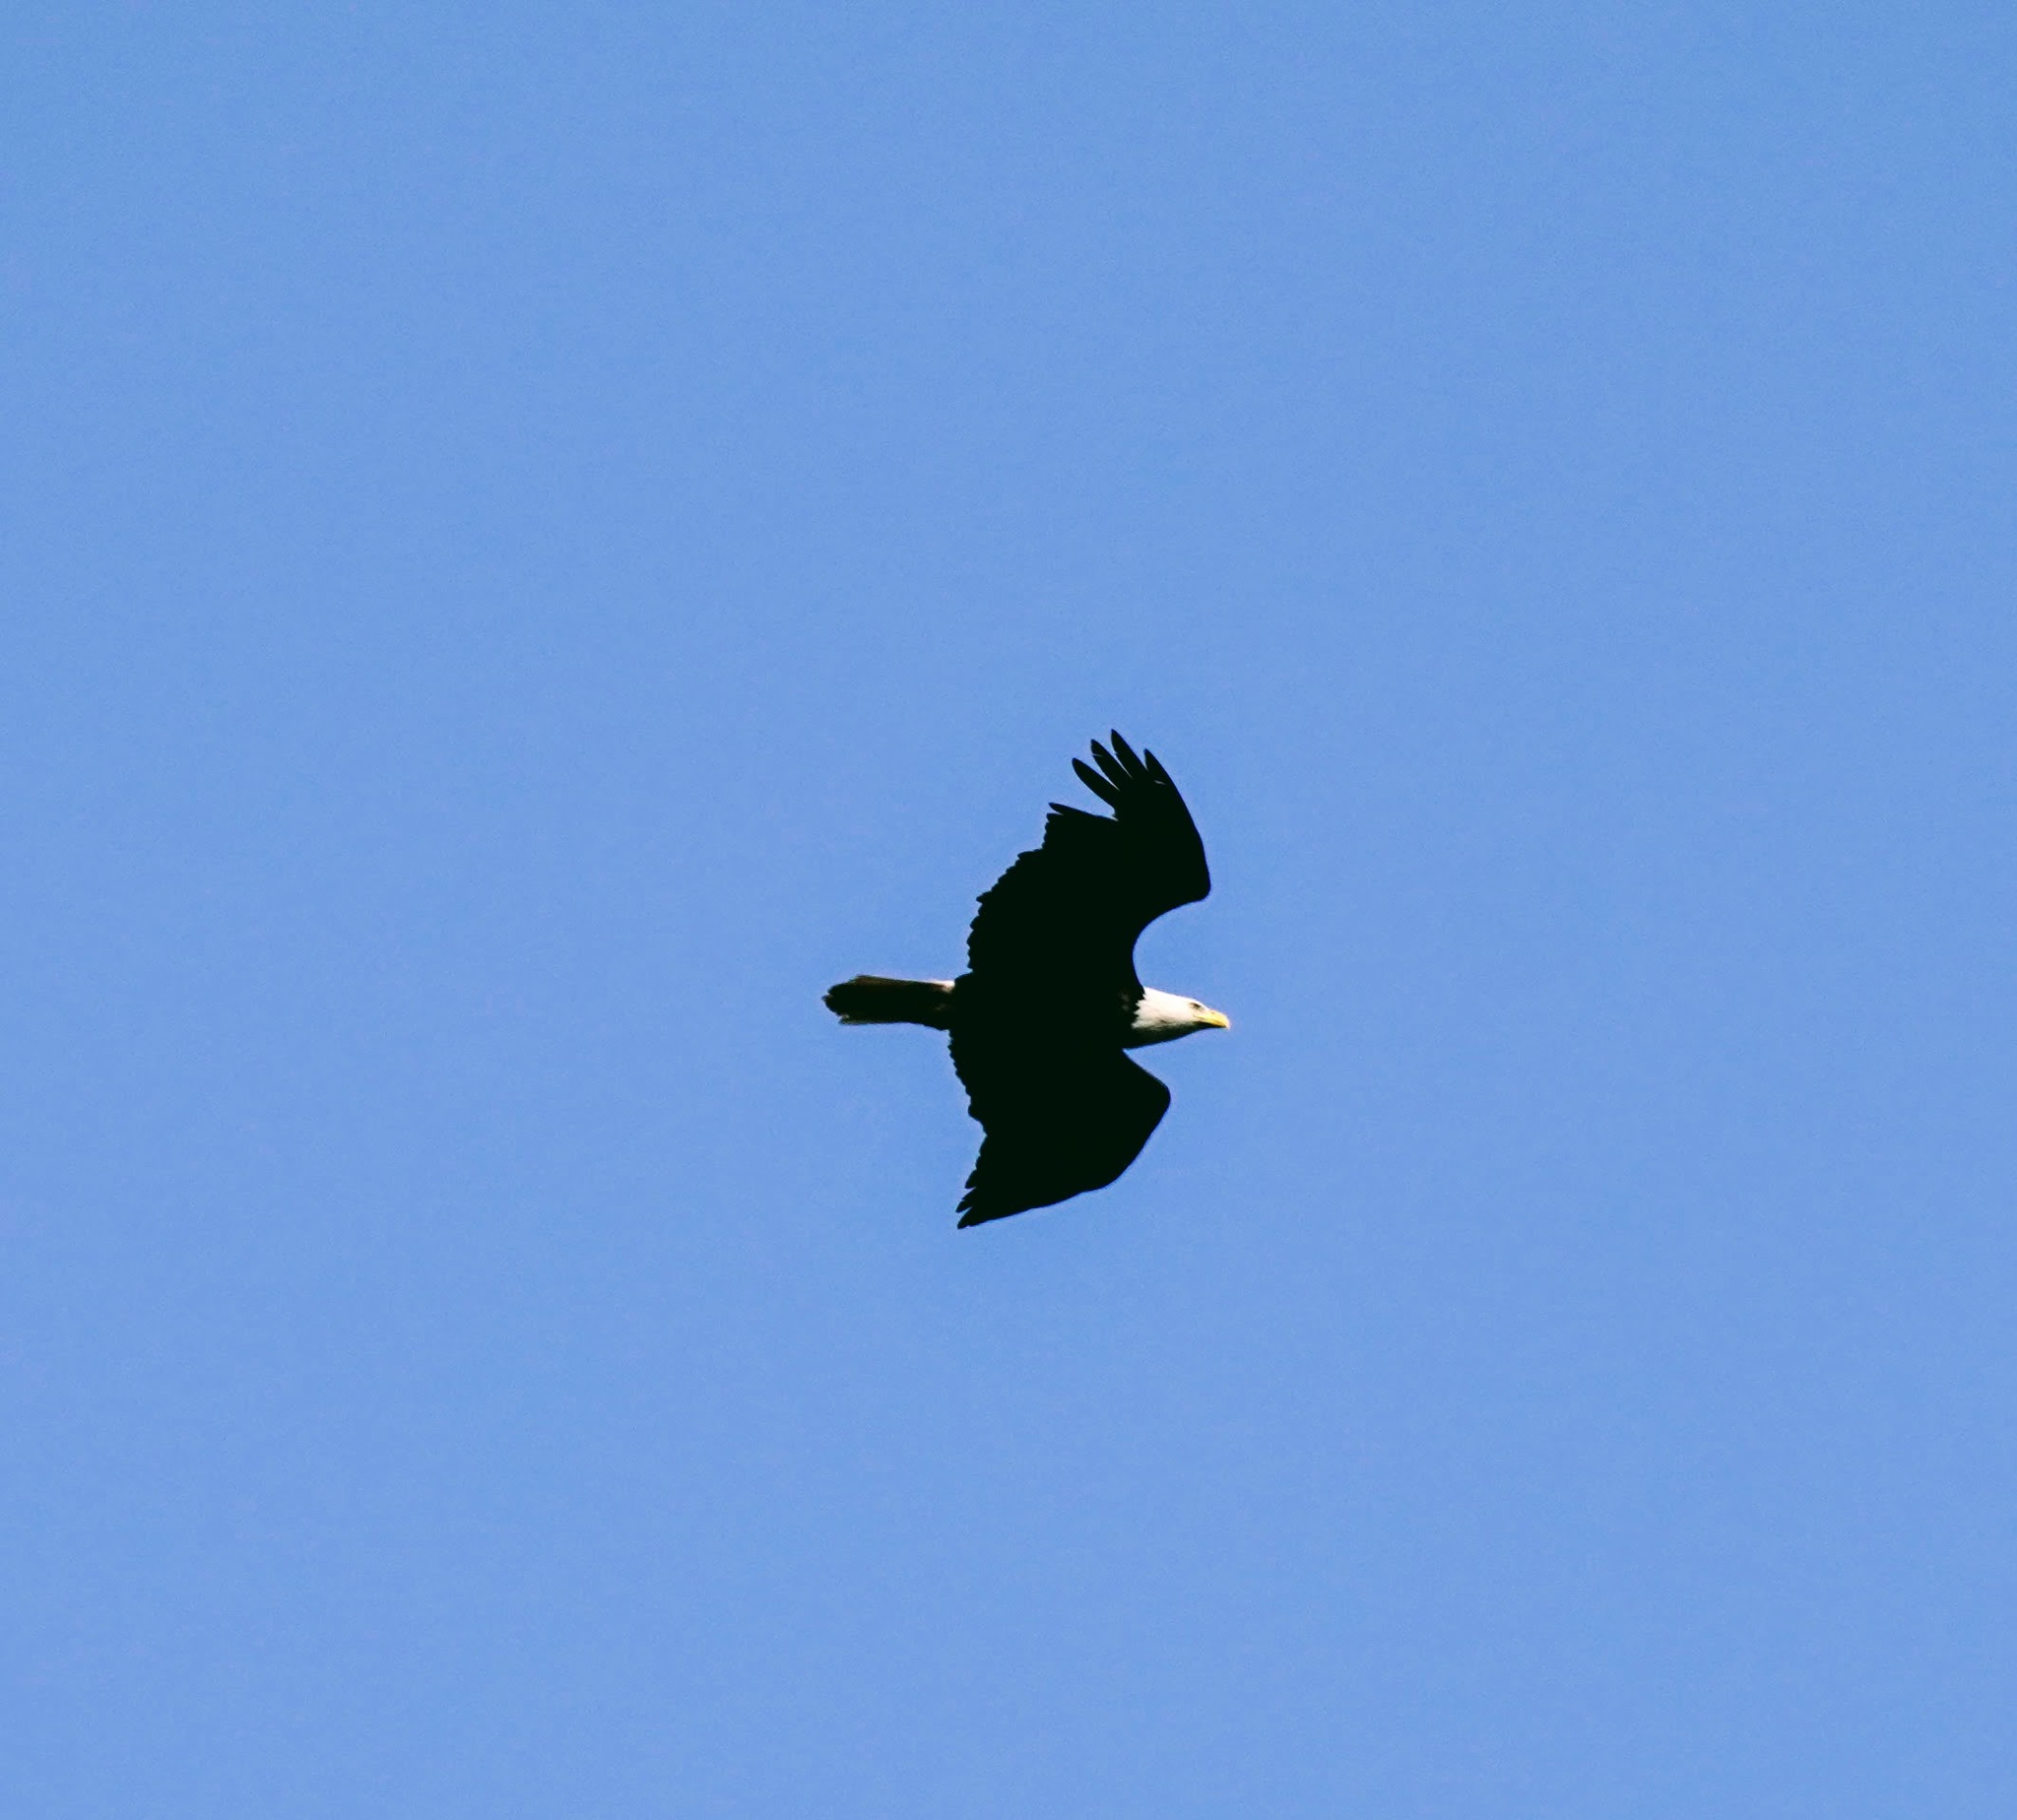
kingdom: Animalia
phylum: Chordata
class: Aves
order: Accipitriformes
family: Accipitridae
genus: Haliaeetus
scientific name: Haliaeetus leucocephalus
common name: Bald eagle
